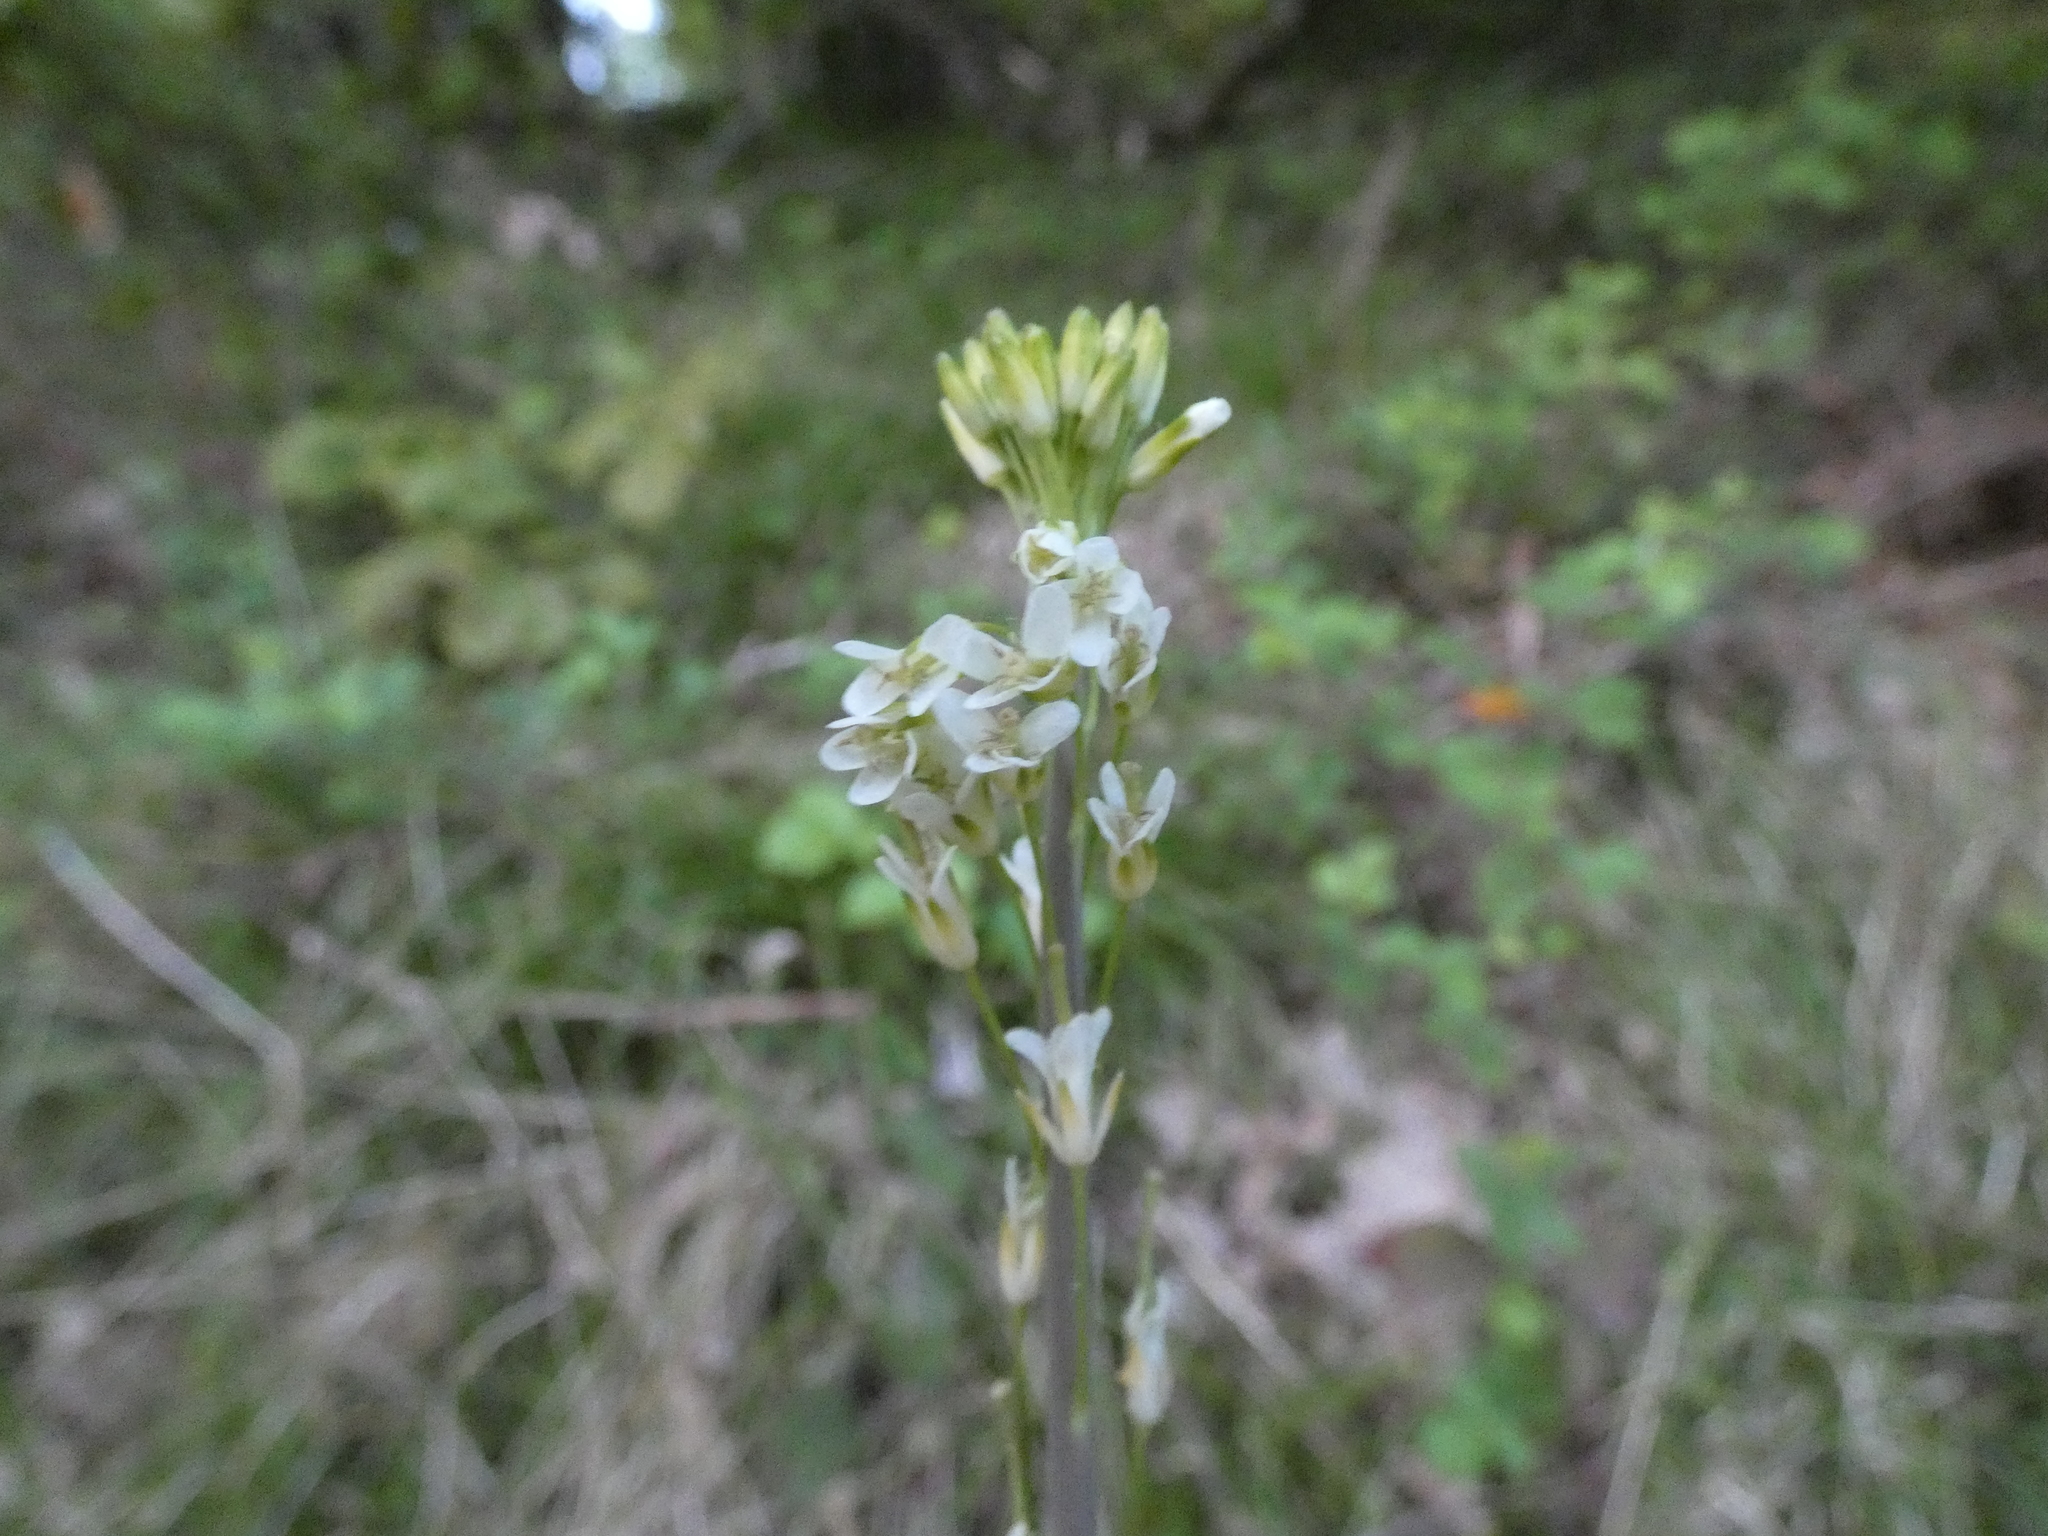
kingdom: Plantae
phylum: Tracheophyta
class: Magnoliopsida
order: Brassicales
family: Brassicaceae
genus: Turritis
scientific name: Turritis glabra
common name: Tower rockcress
